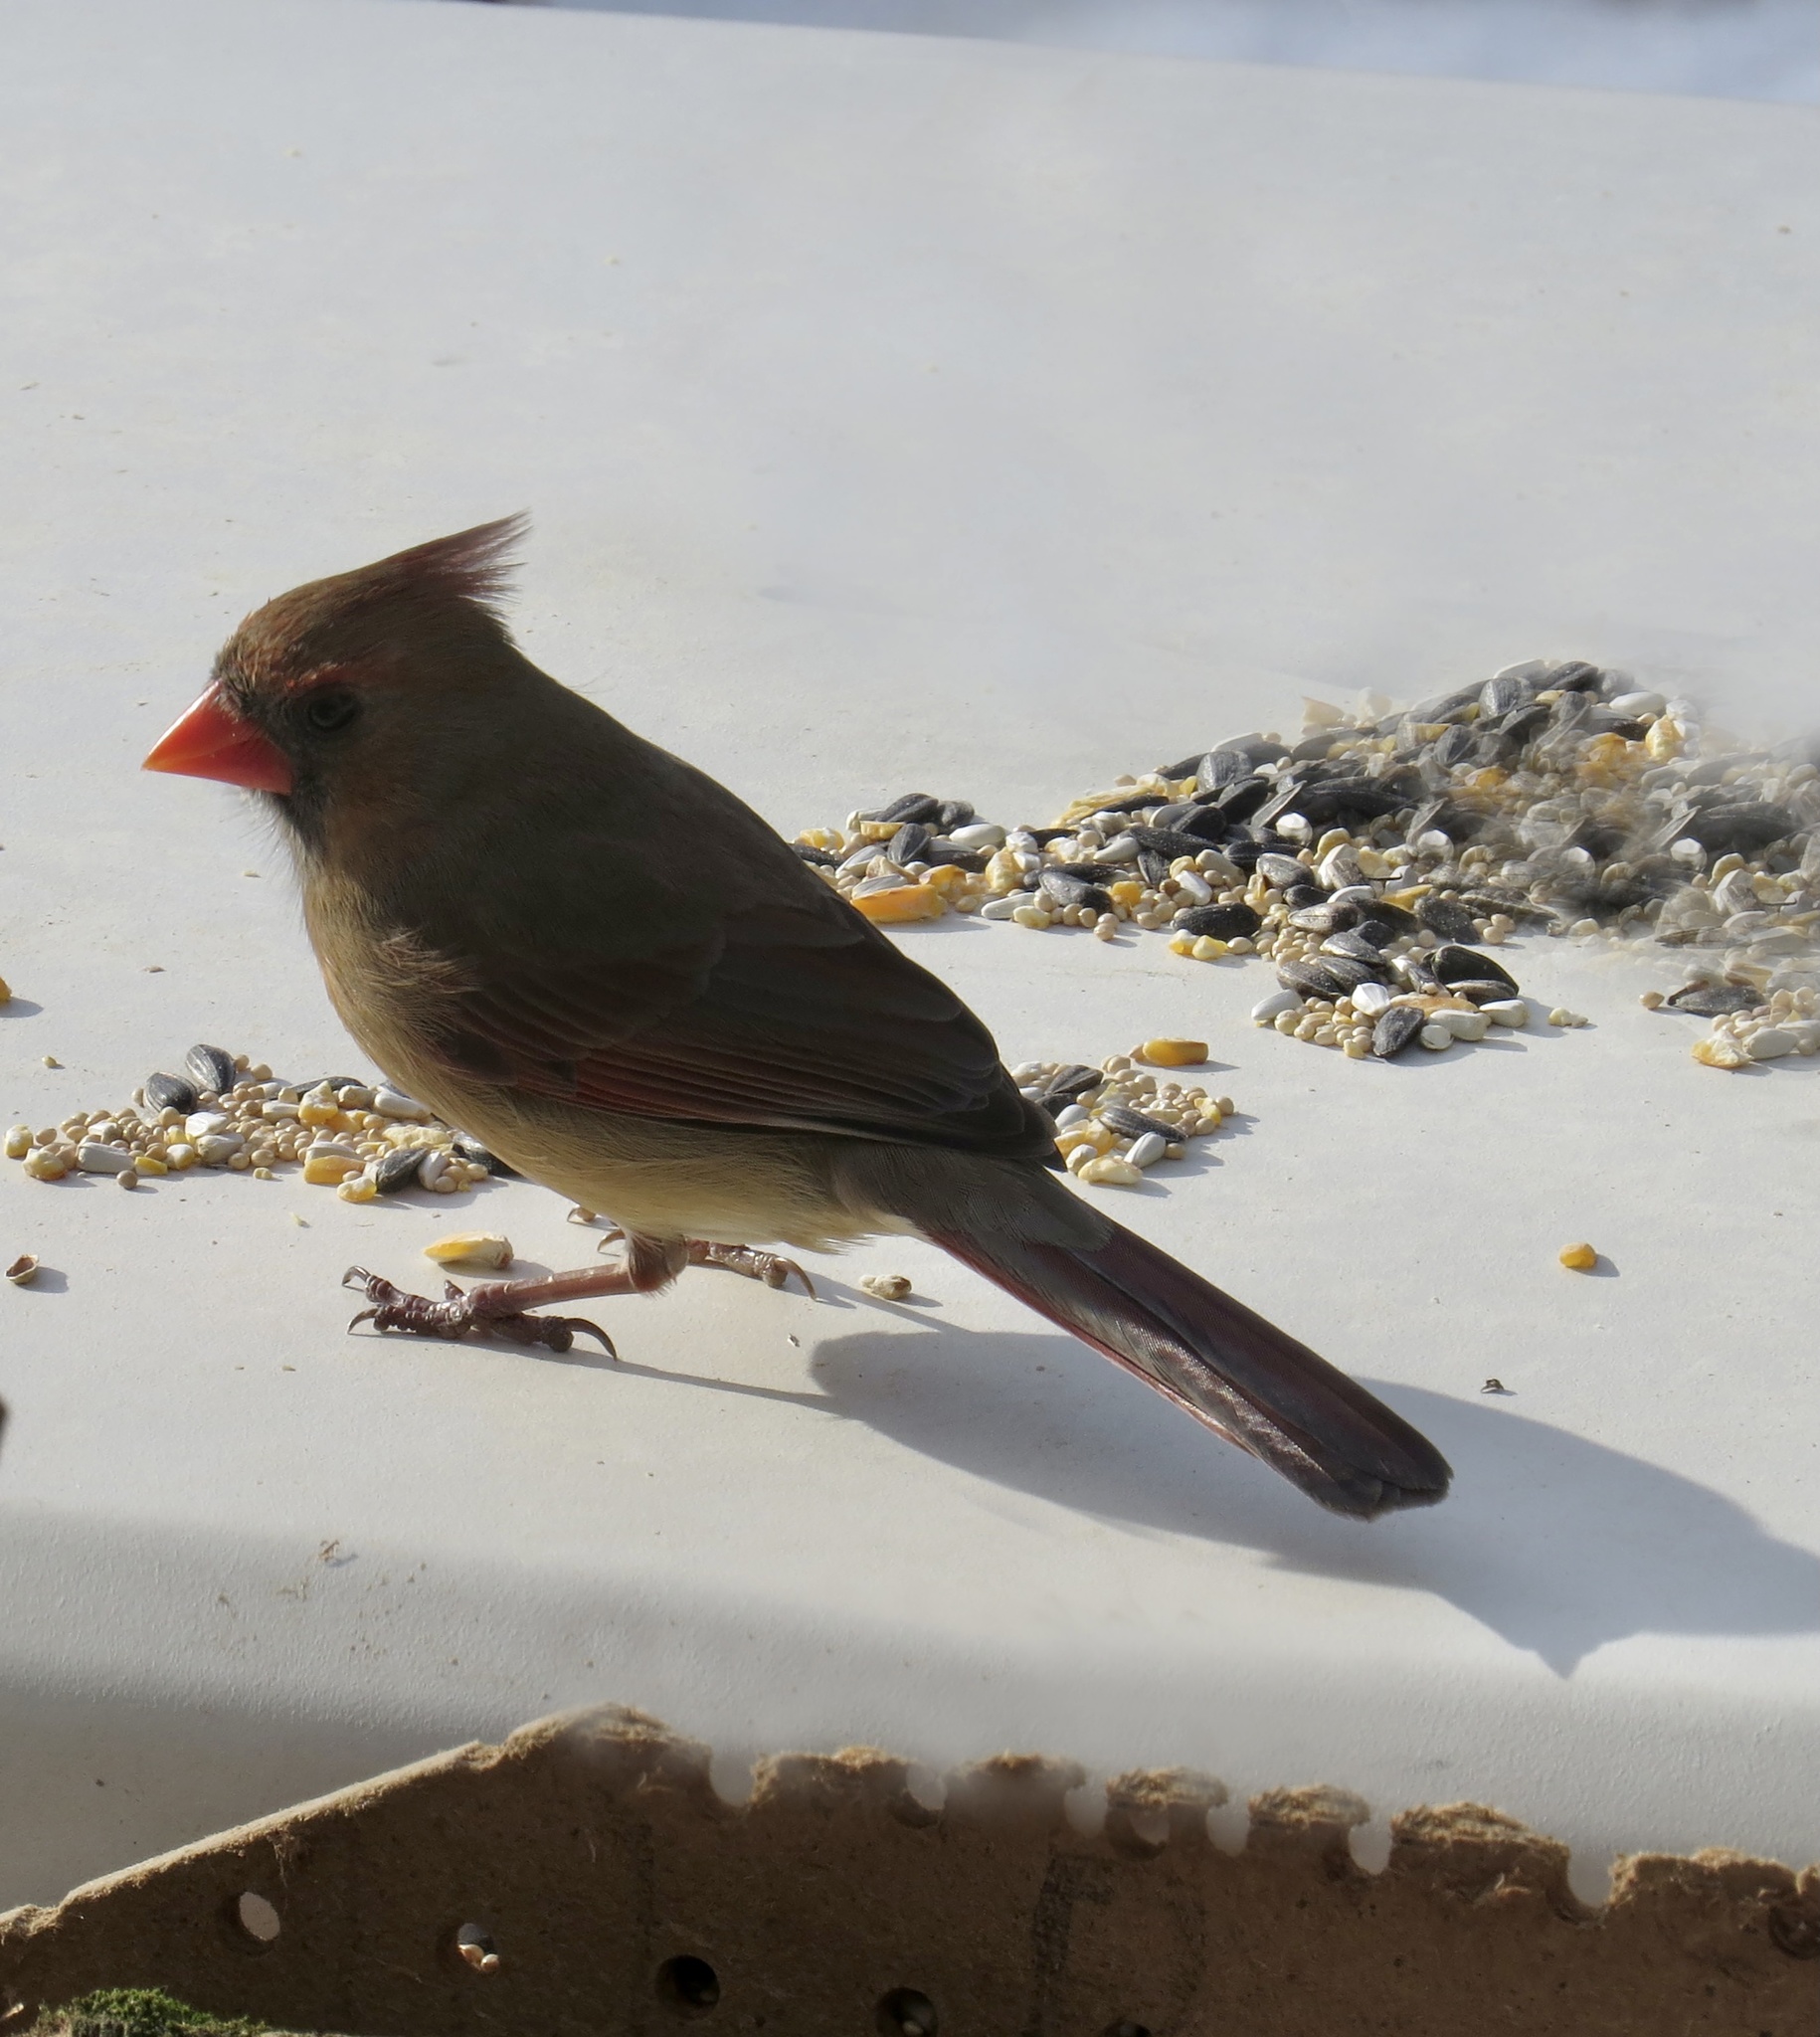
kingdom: Animalia
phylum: Chordata
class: Aves
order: Passeriformes
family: Cardinalidae
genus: Cardinalis
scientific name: Cardinalis cardinalis
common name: Northern cardinal
